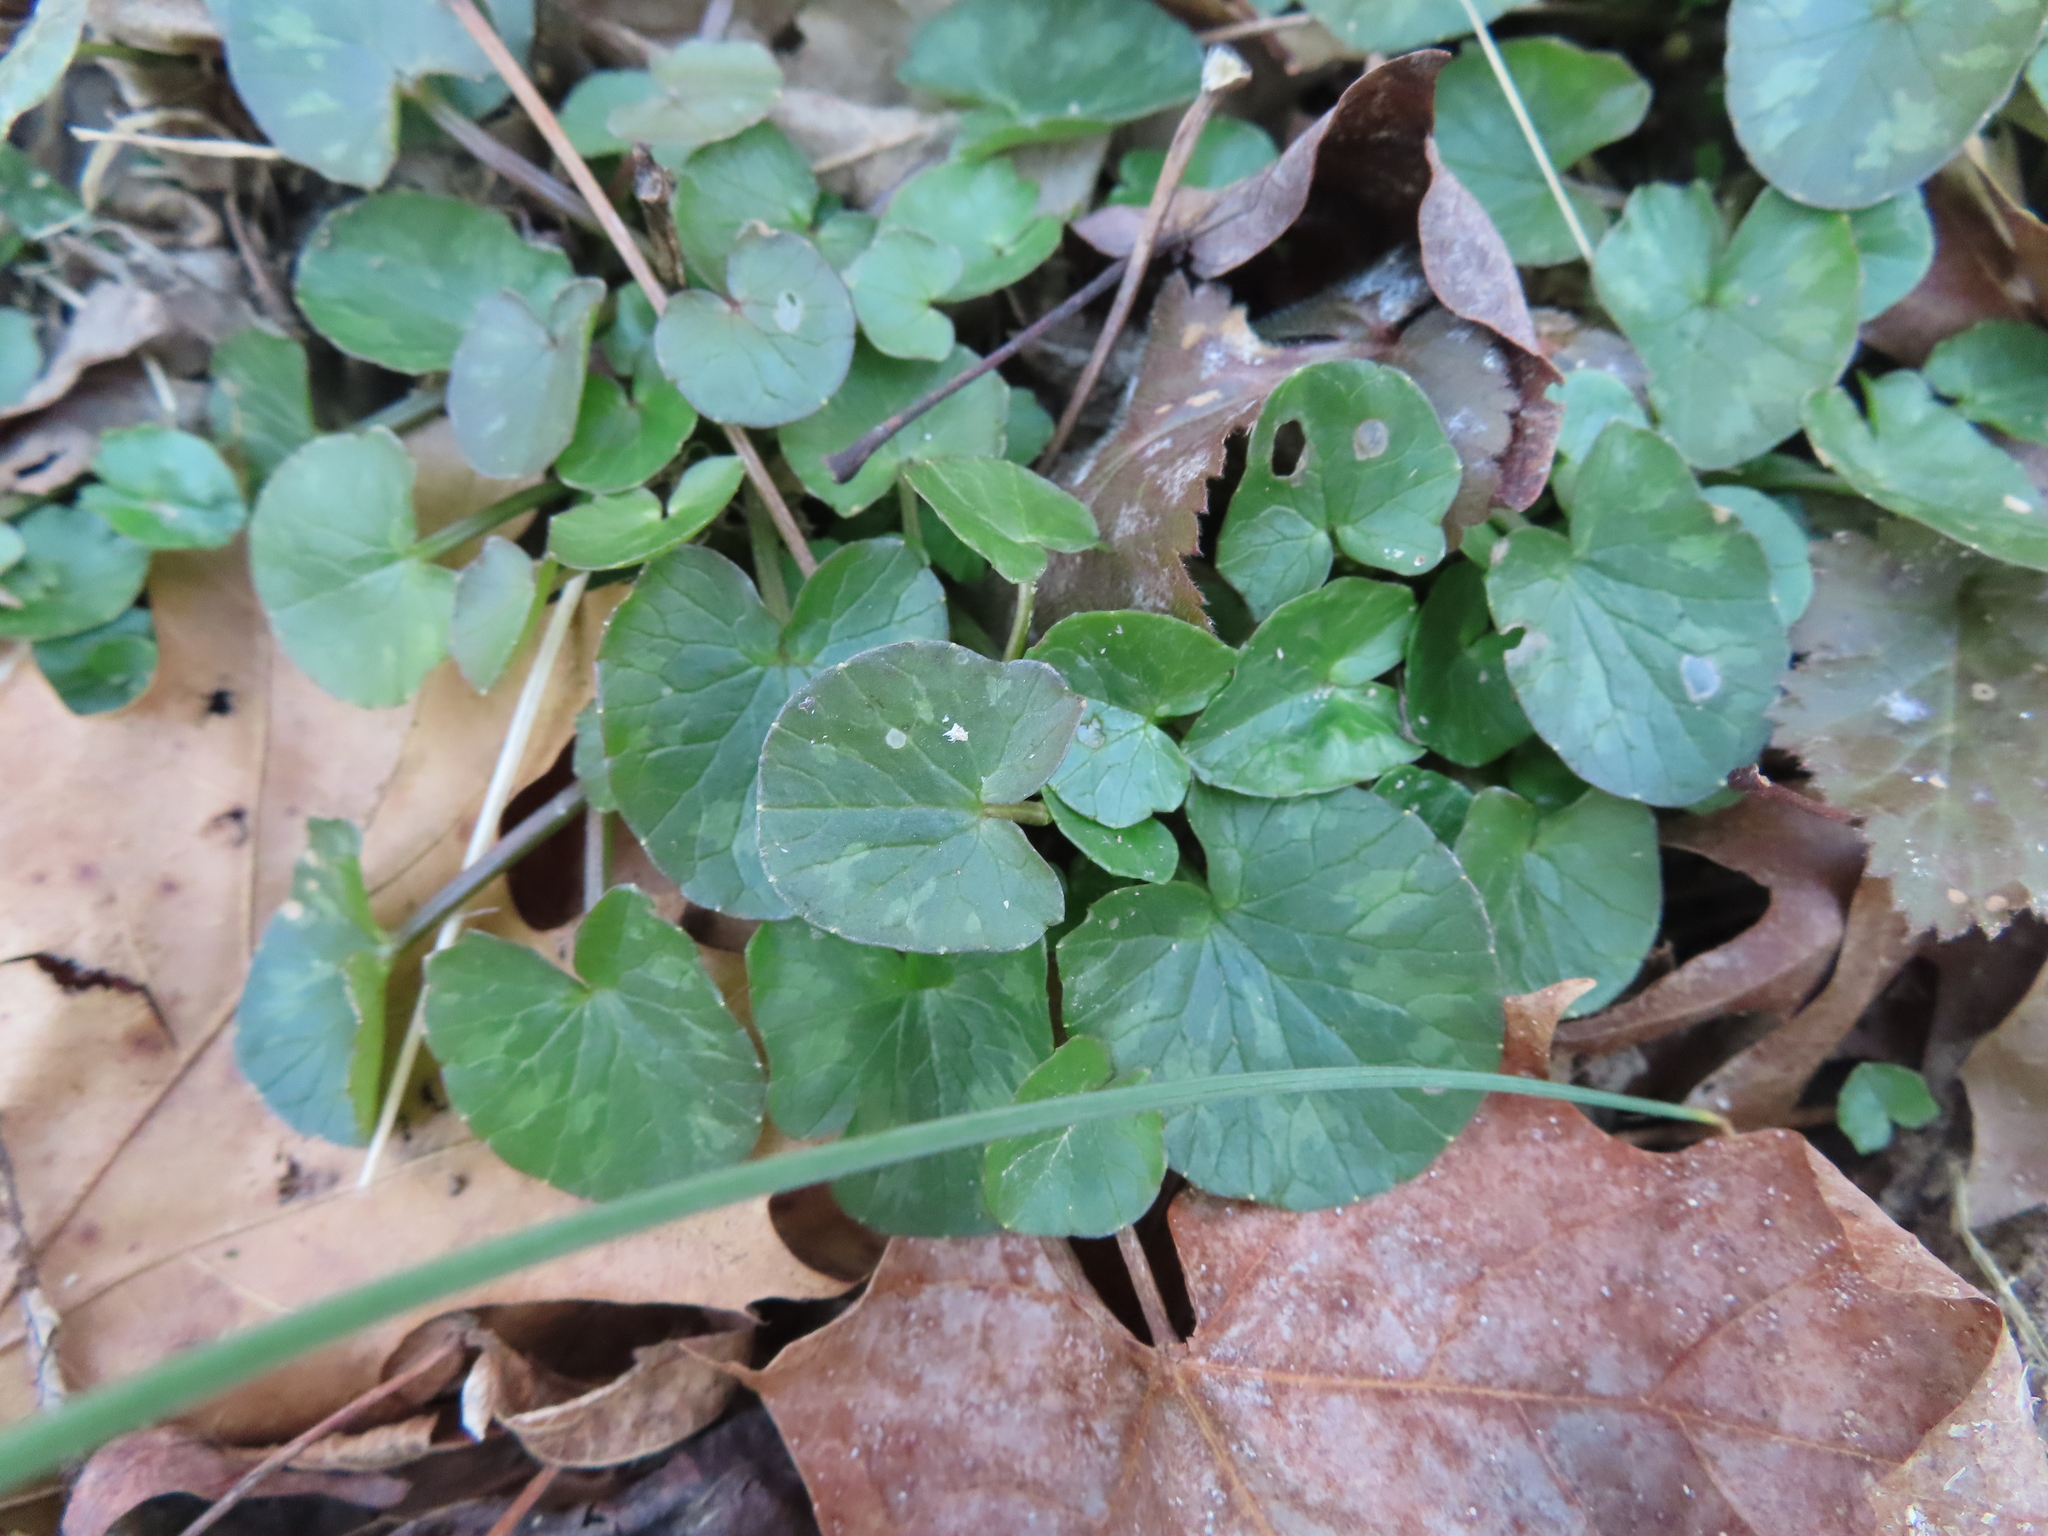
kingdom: Plantae
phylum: Tracheophyta
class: Magnoliopsida
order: Ranunculales
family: Ranunculaceae
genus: Ficaria
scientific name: Ficaria verna
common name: Lesser celandine
